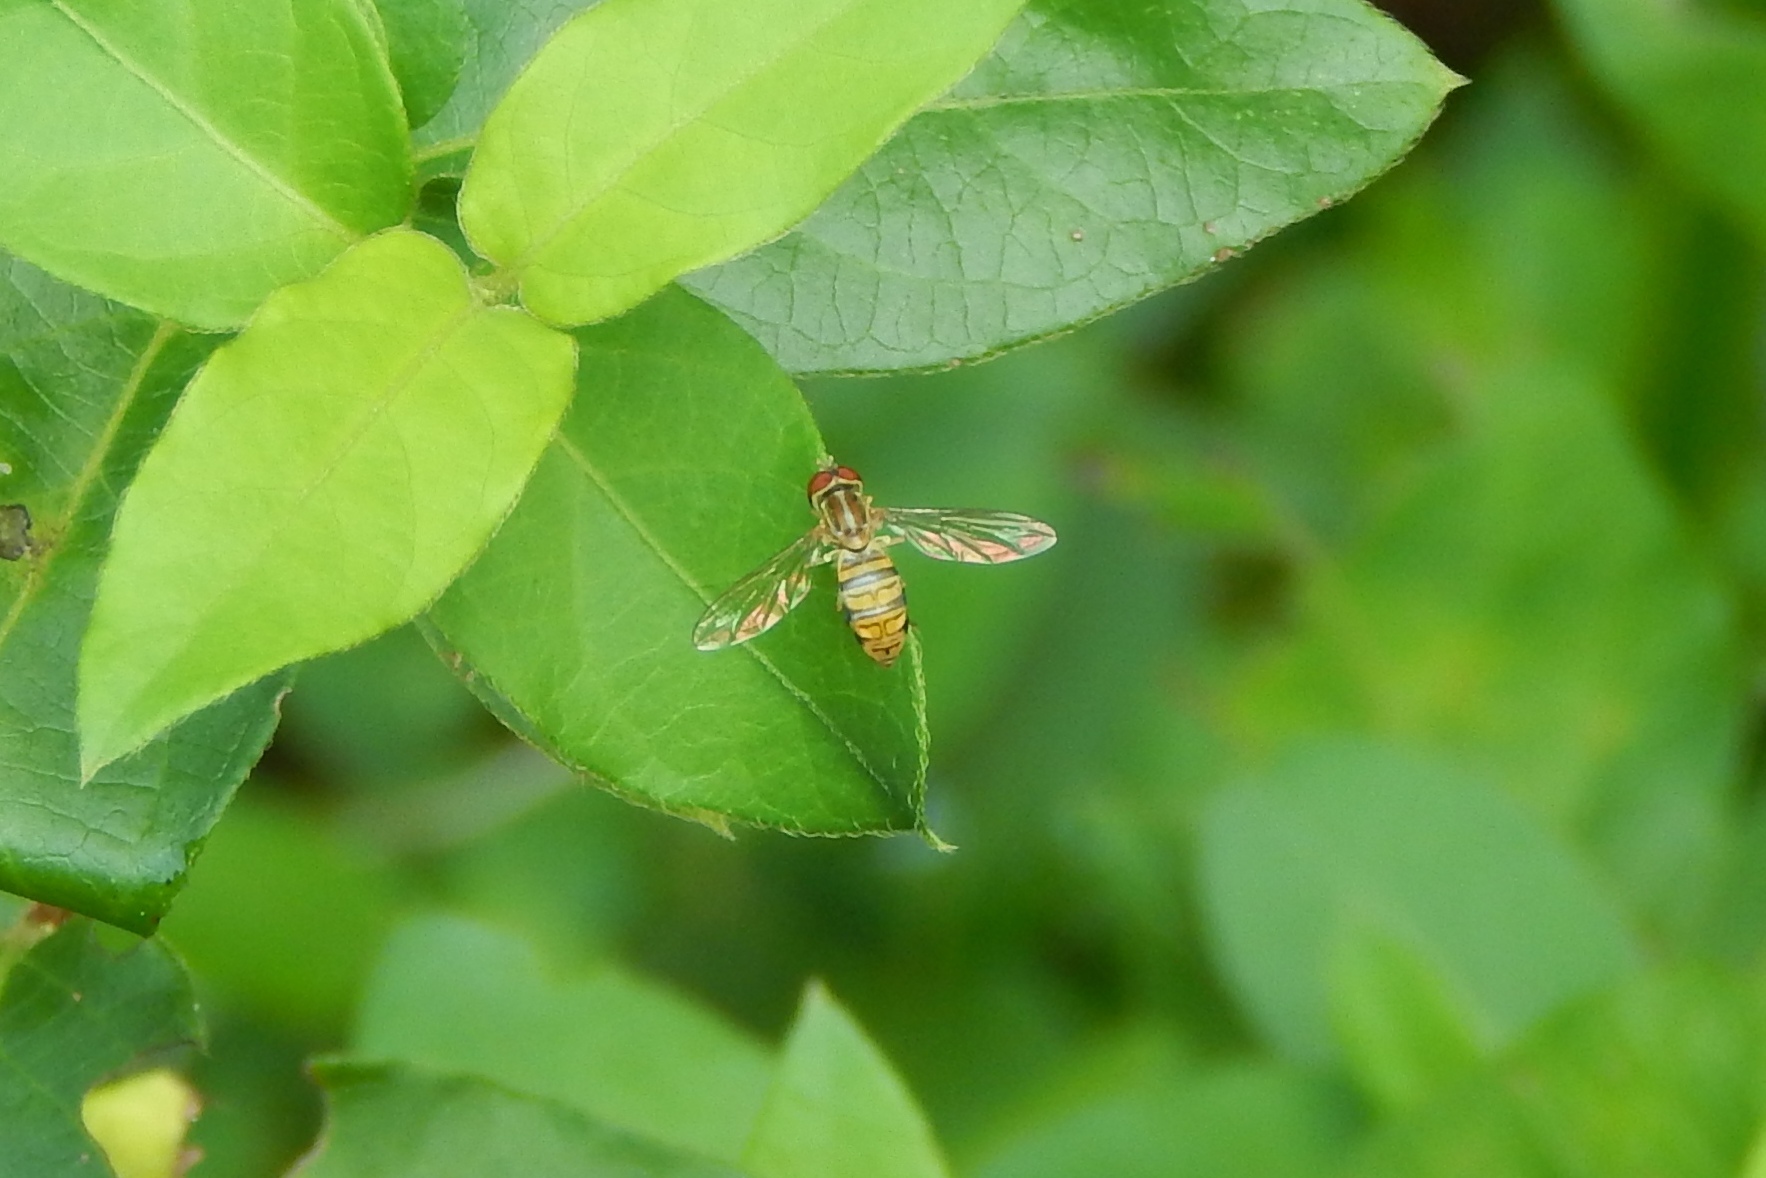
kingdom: Animalia
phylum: Arthropoda
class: Insecta
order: Diptera
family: Syrphidae
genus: Toxomerus
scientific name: Toxomerus politus
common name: Maize calligrapher
